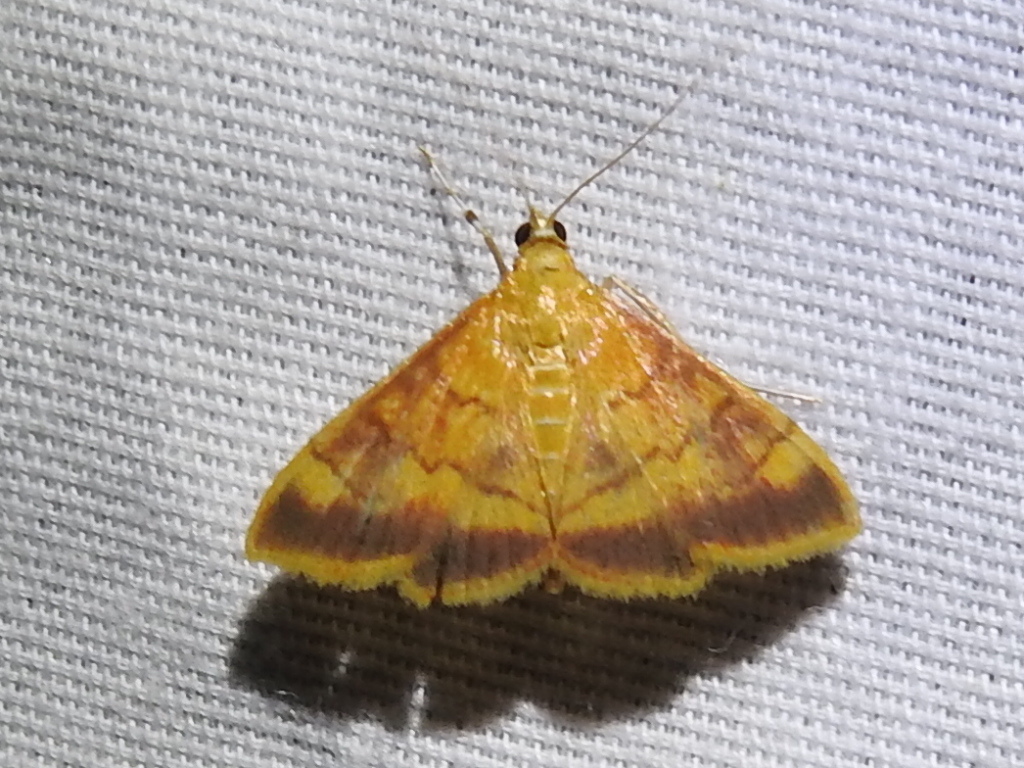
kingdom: Animalia
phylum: Arthropoda
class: Insecta
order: Lepidoptera
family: Crambidae
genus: Pyrausta
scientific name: Pyrausta pseudonythesalis
